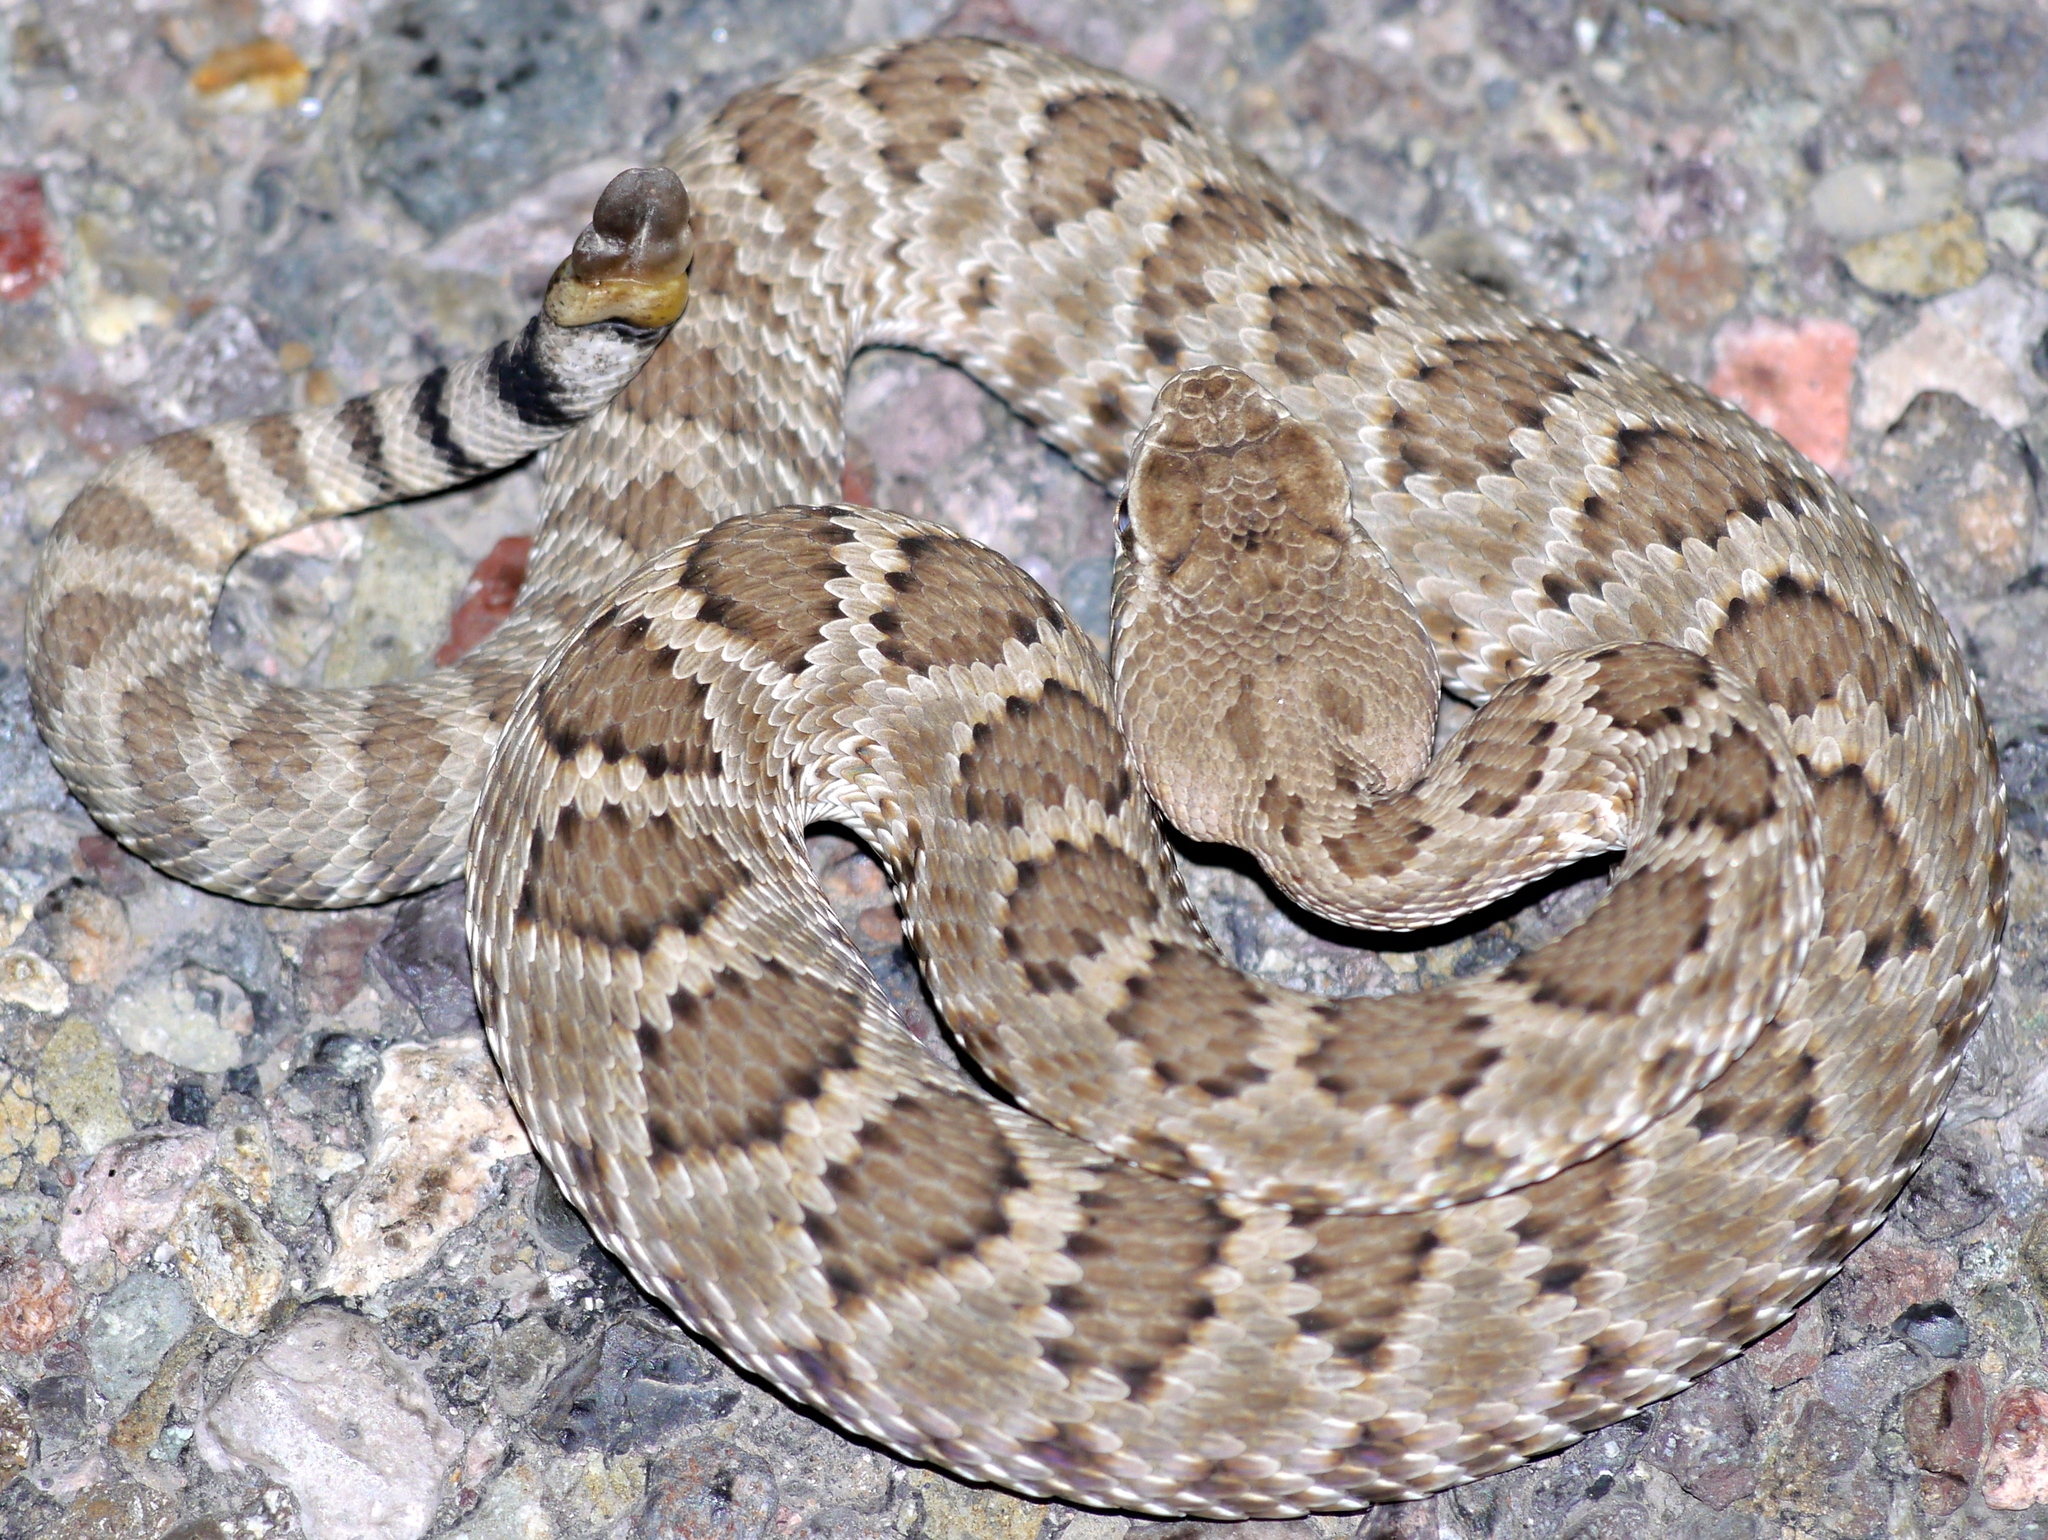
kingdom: Animalia
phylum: Chordata
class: Squamata
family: Viperidae
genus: Crotalus
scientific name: Crotalus scutulatus
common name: Scutulatus
